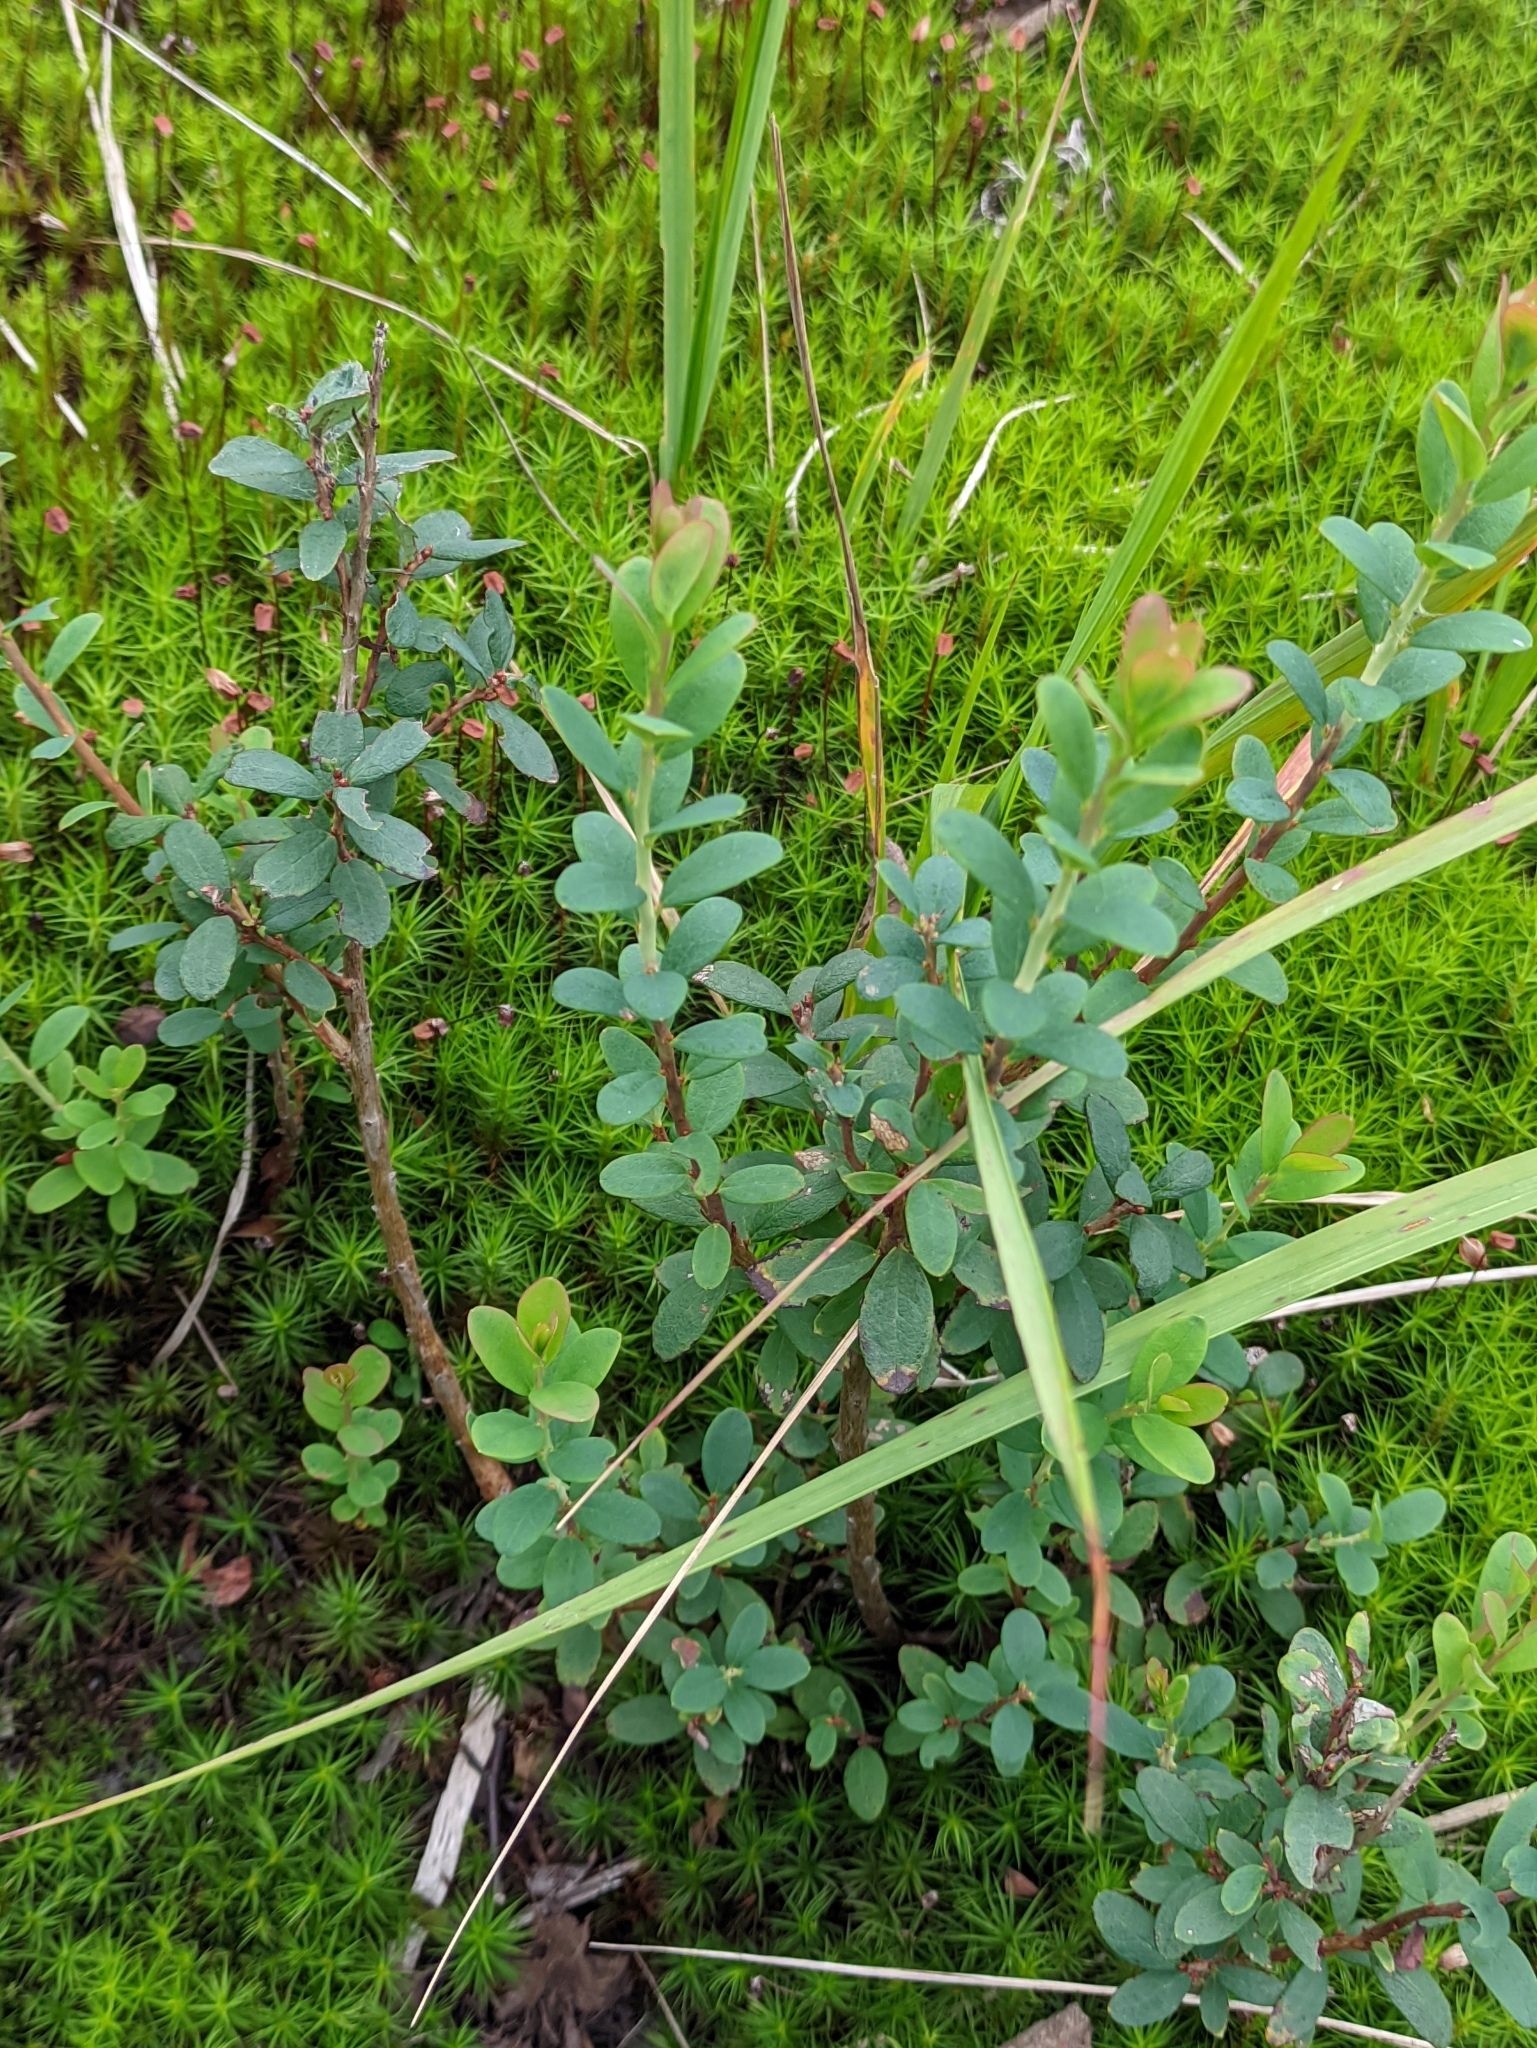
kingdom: Plantae
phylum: Tracheophyta
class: Magnoliopsida
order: Ericales
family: Ericaceae
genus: Vaccinium
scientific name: Vaccinium uliginosum
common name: Bog bilberry
